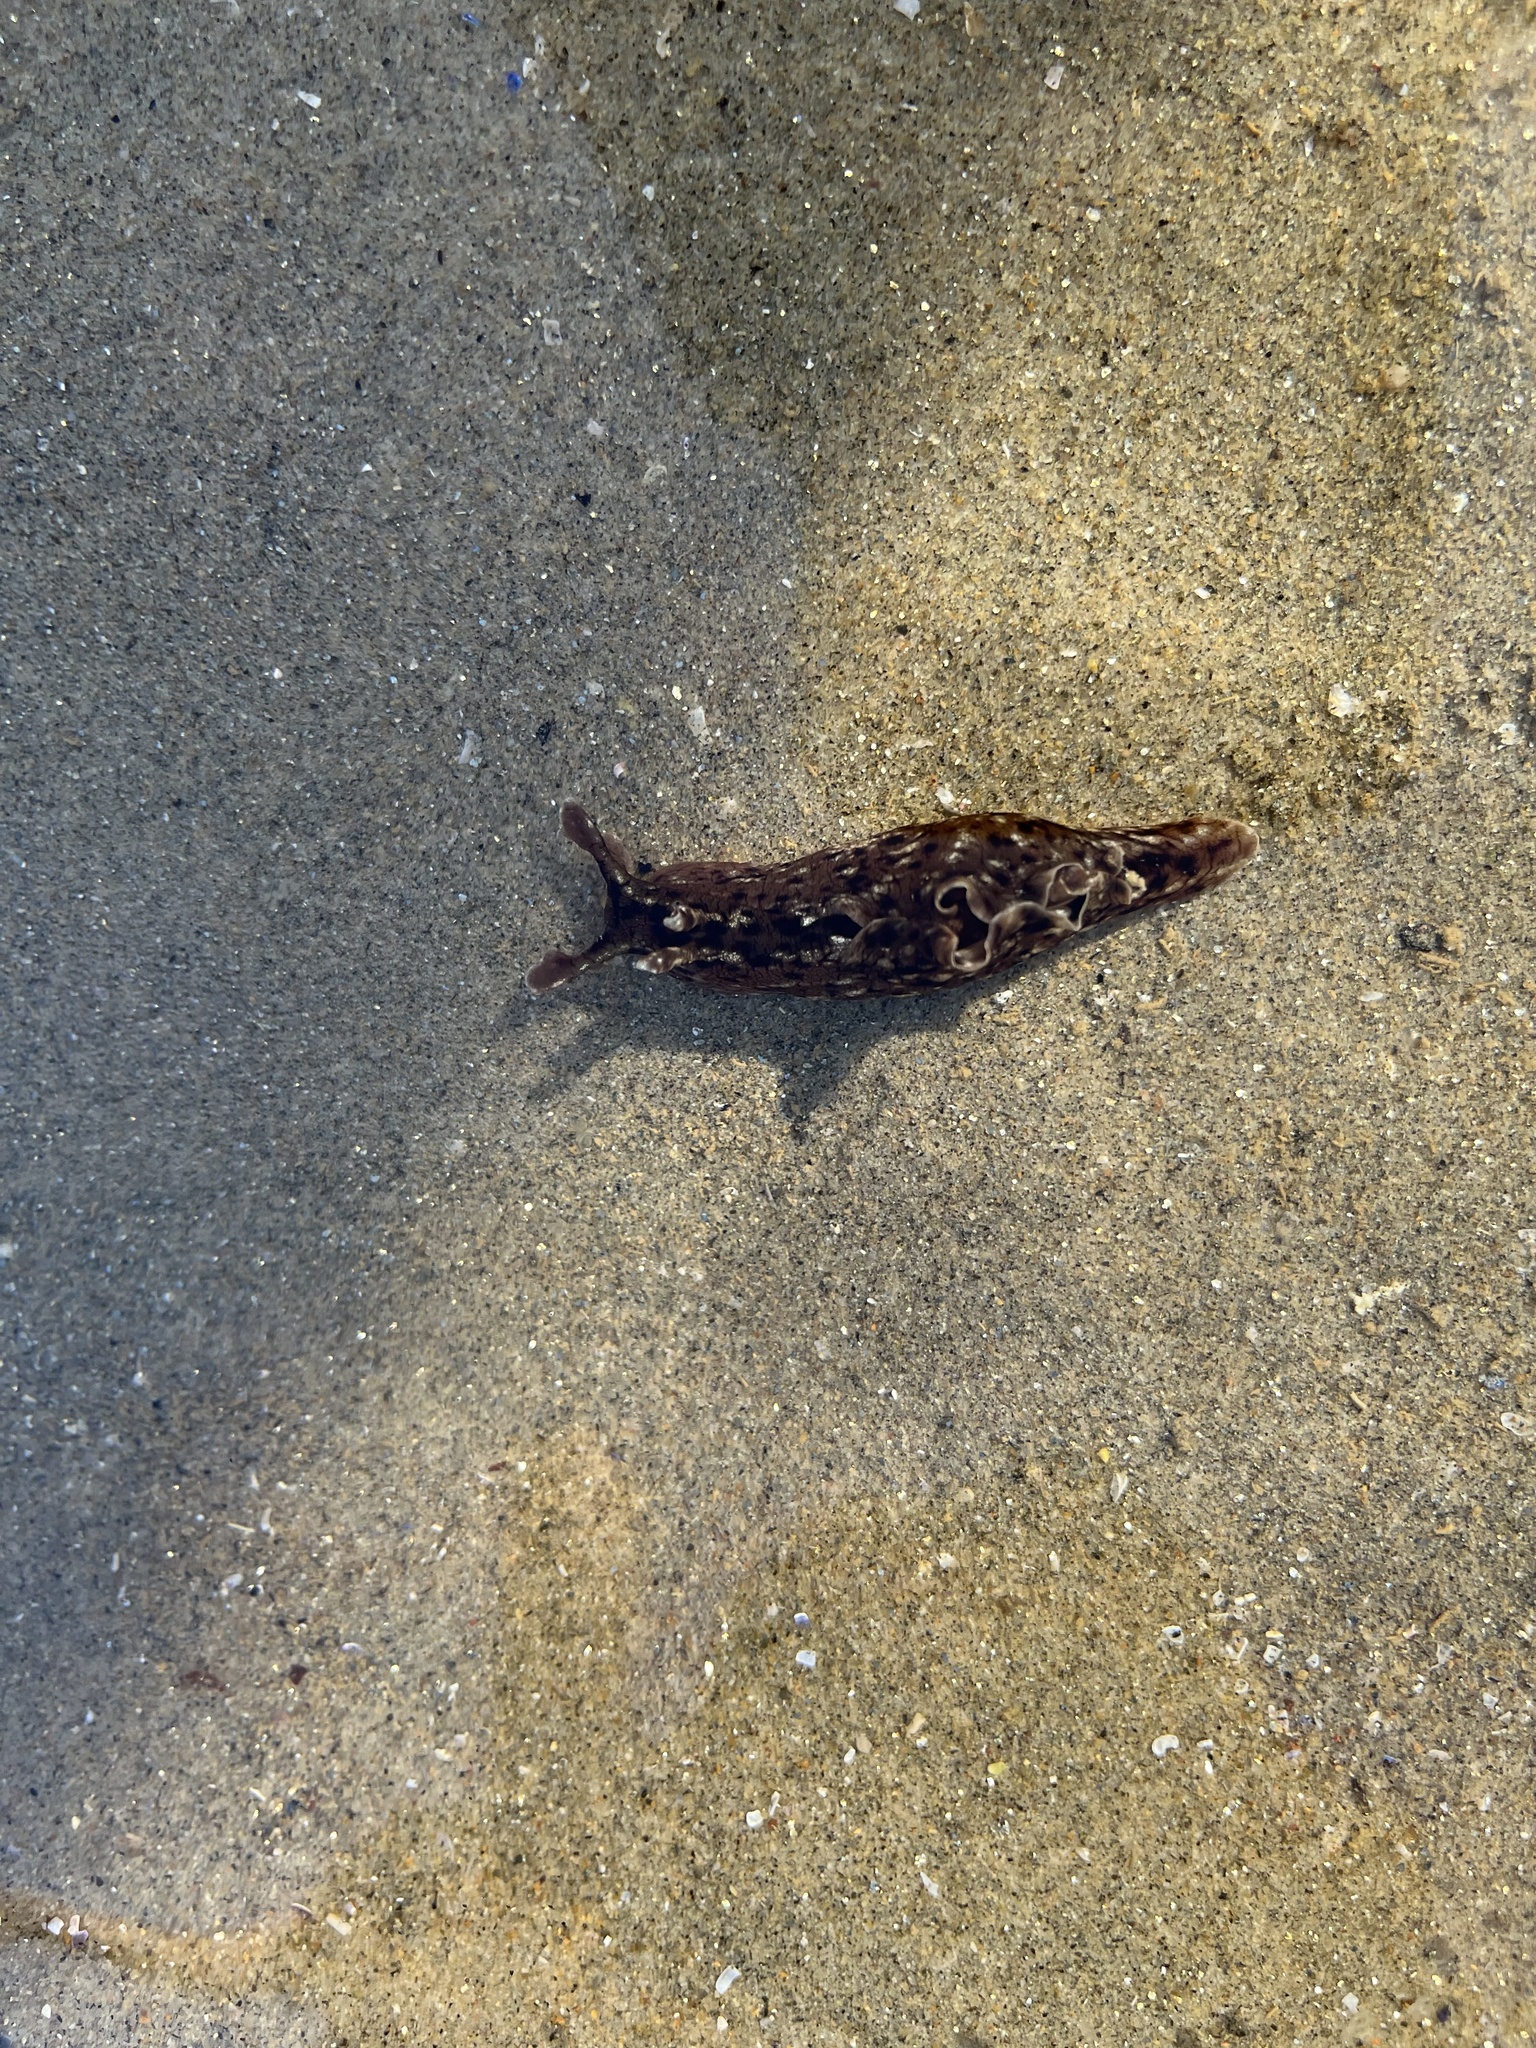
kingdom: Animalia
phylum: Mollusca
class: Gastropoda
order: Aplysiida
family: Aplysiidae
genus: Aplysia
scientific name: Aplysia californica
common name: California seahare
